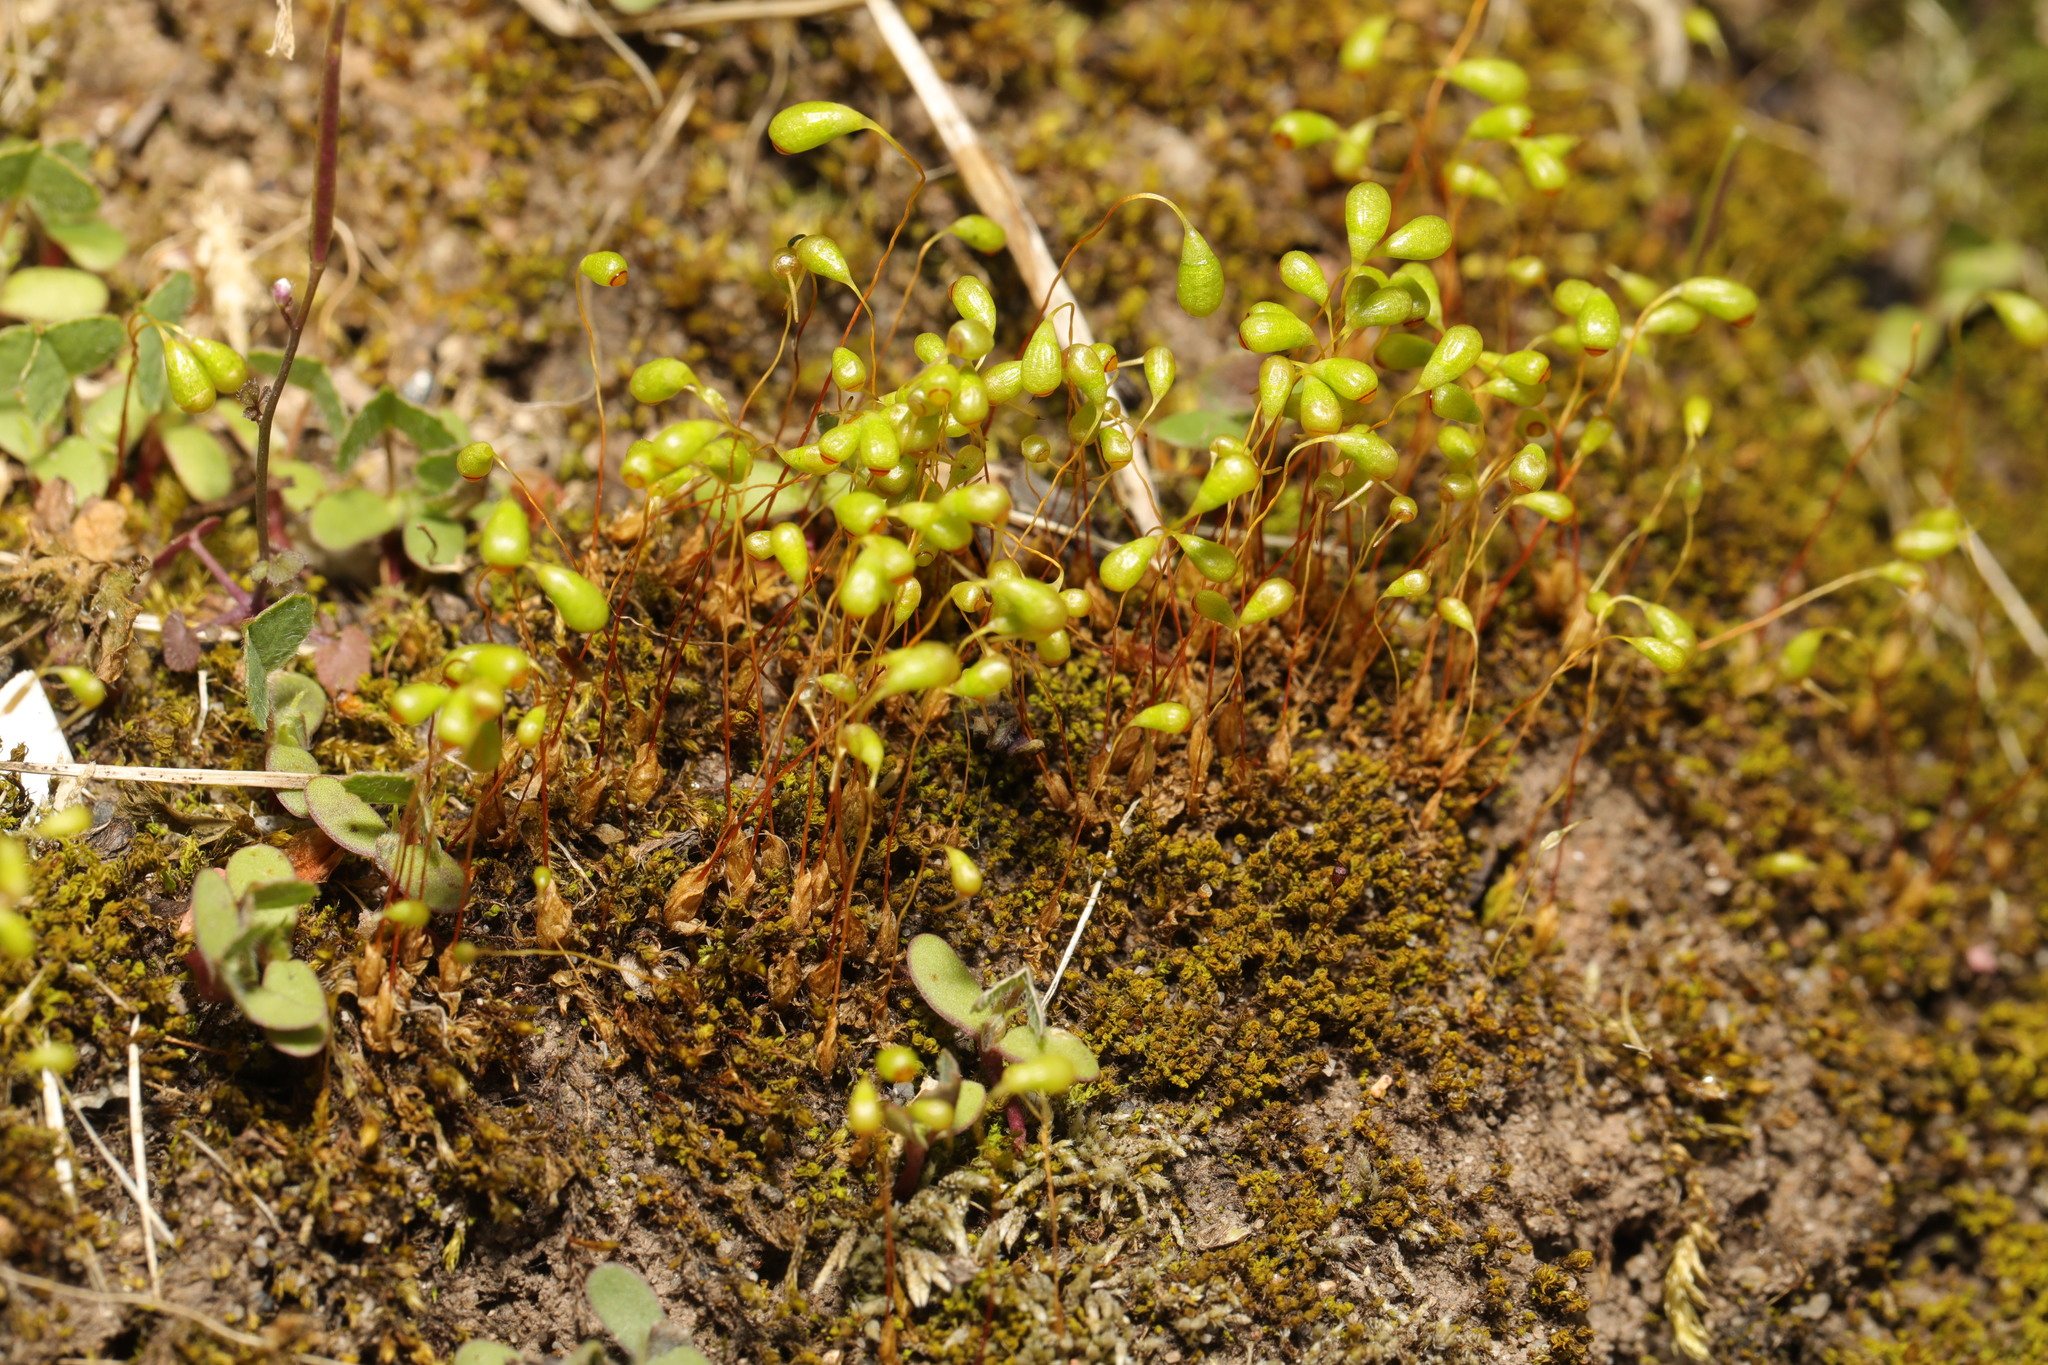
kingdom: Plantae
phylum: Bryophyta
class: Bryopsida
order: Funariales
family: Funariaceae
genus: Funaria
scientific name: Funaria hygrometrica
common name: Common cord moss
